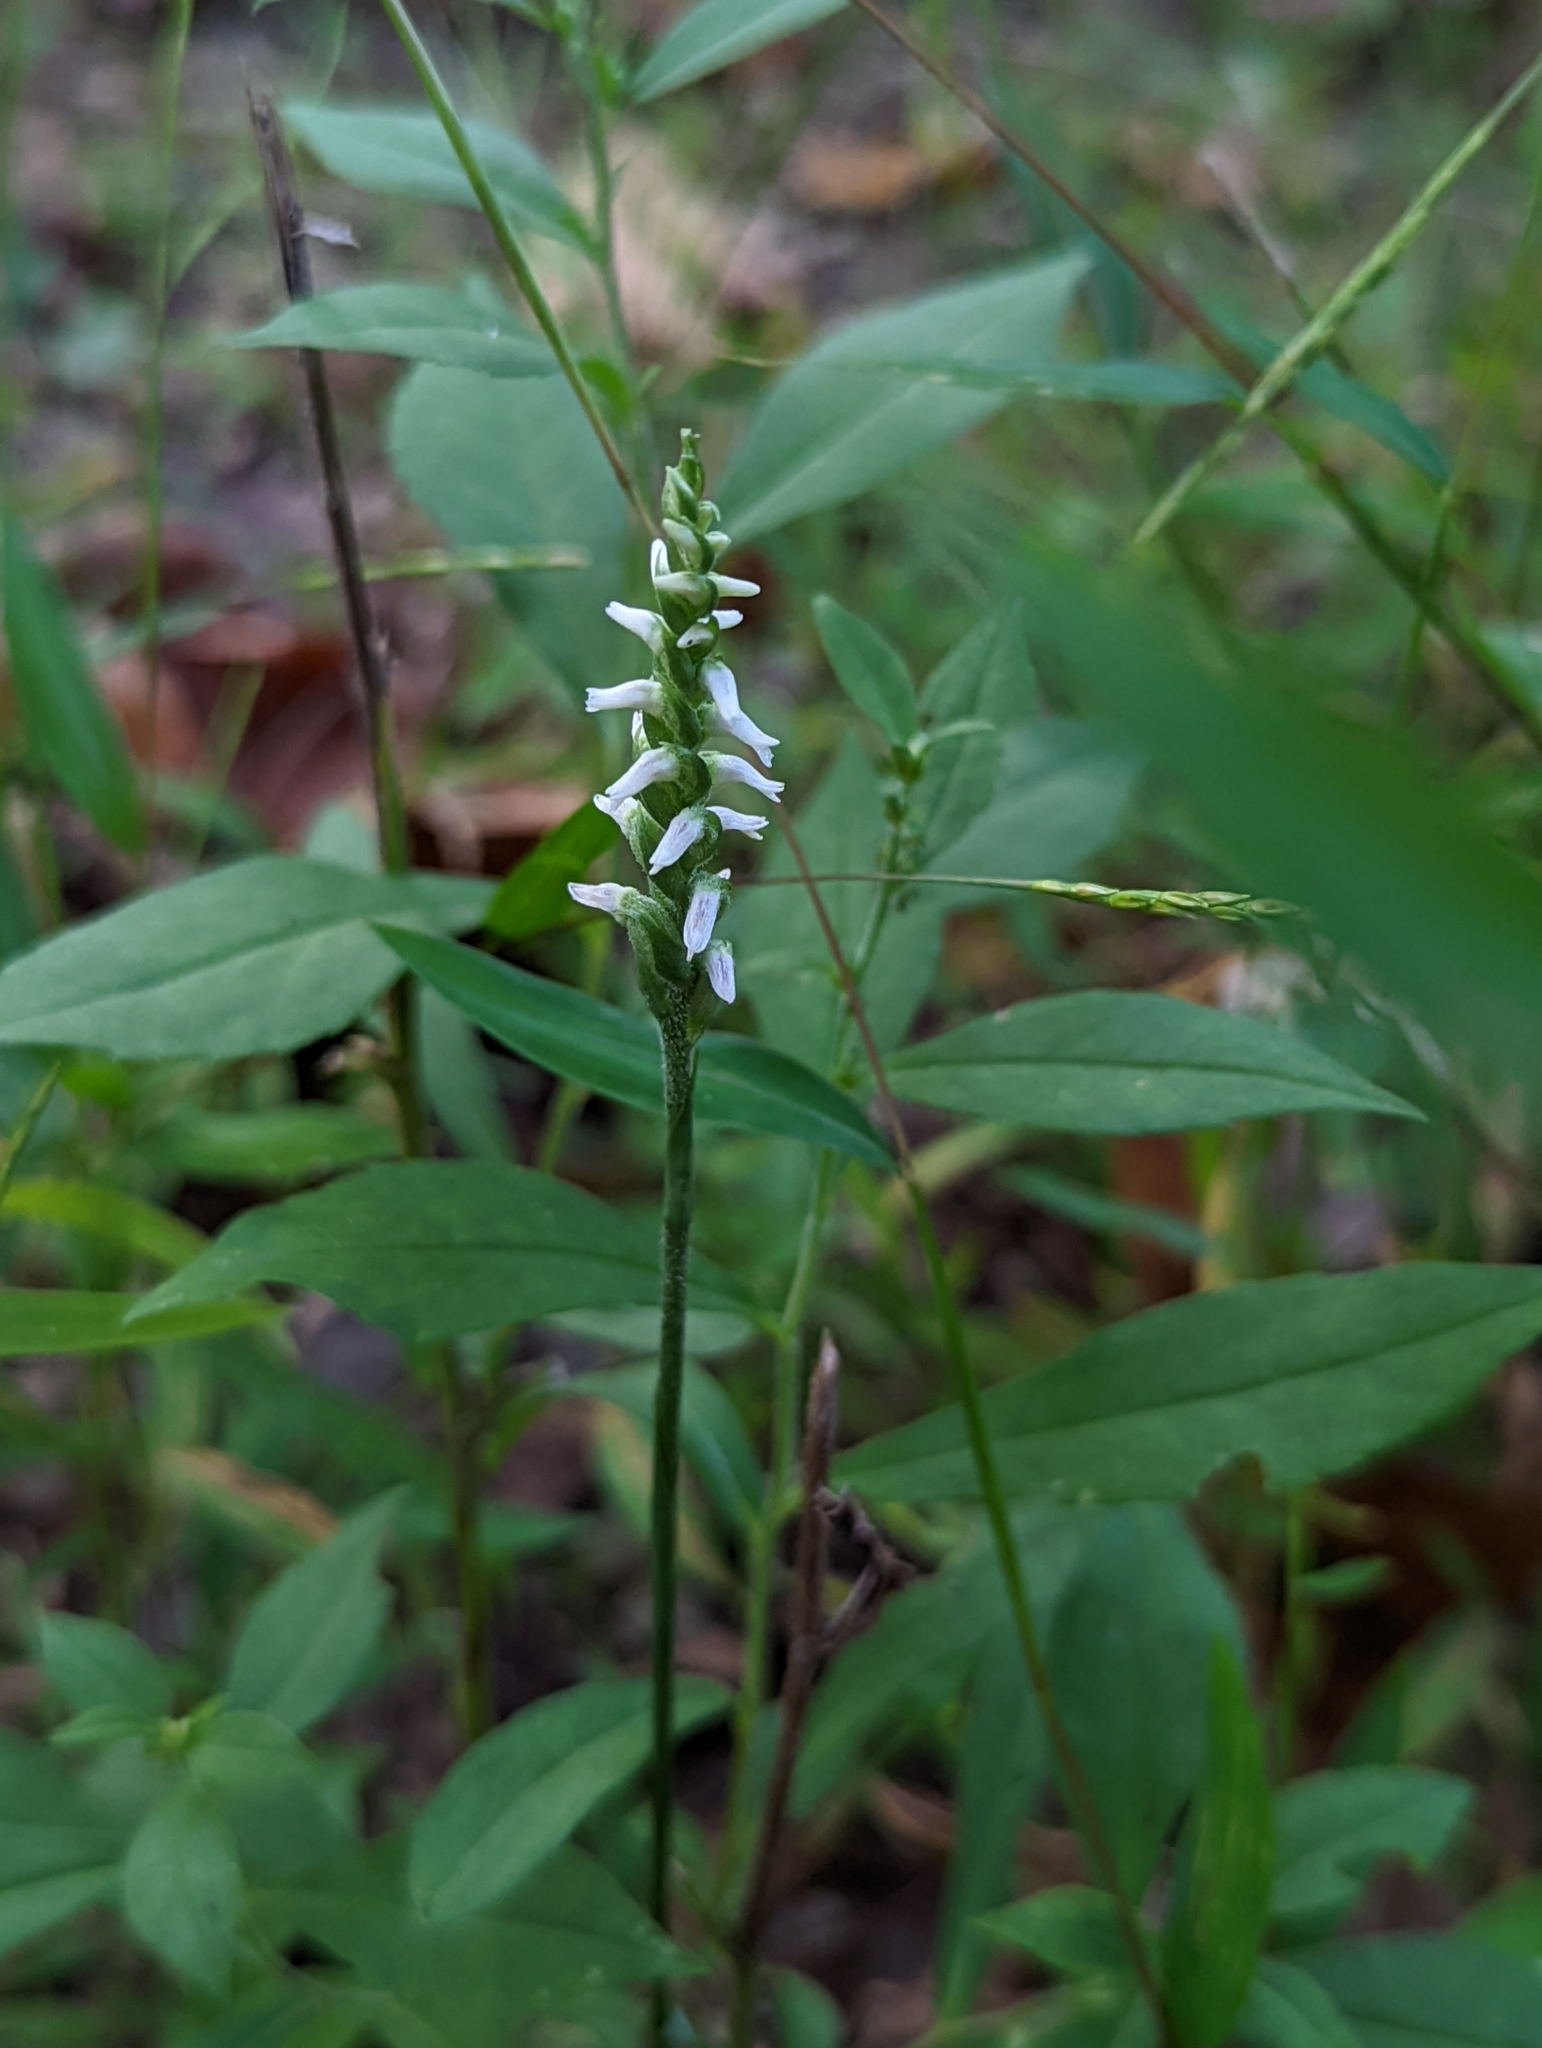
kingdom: Plantae
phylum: Tracheophyta
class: Liliopsida
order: Asparagales
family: Orchidaceae
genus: Spiranthes
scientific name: Spiranthes ovalis
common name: October ladies'-tresses
